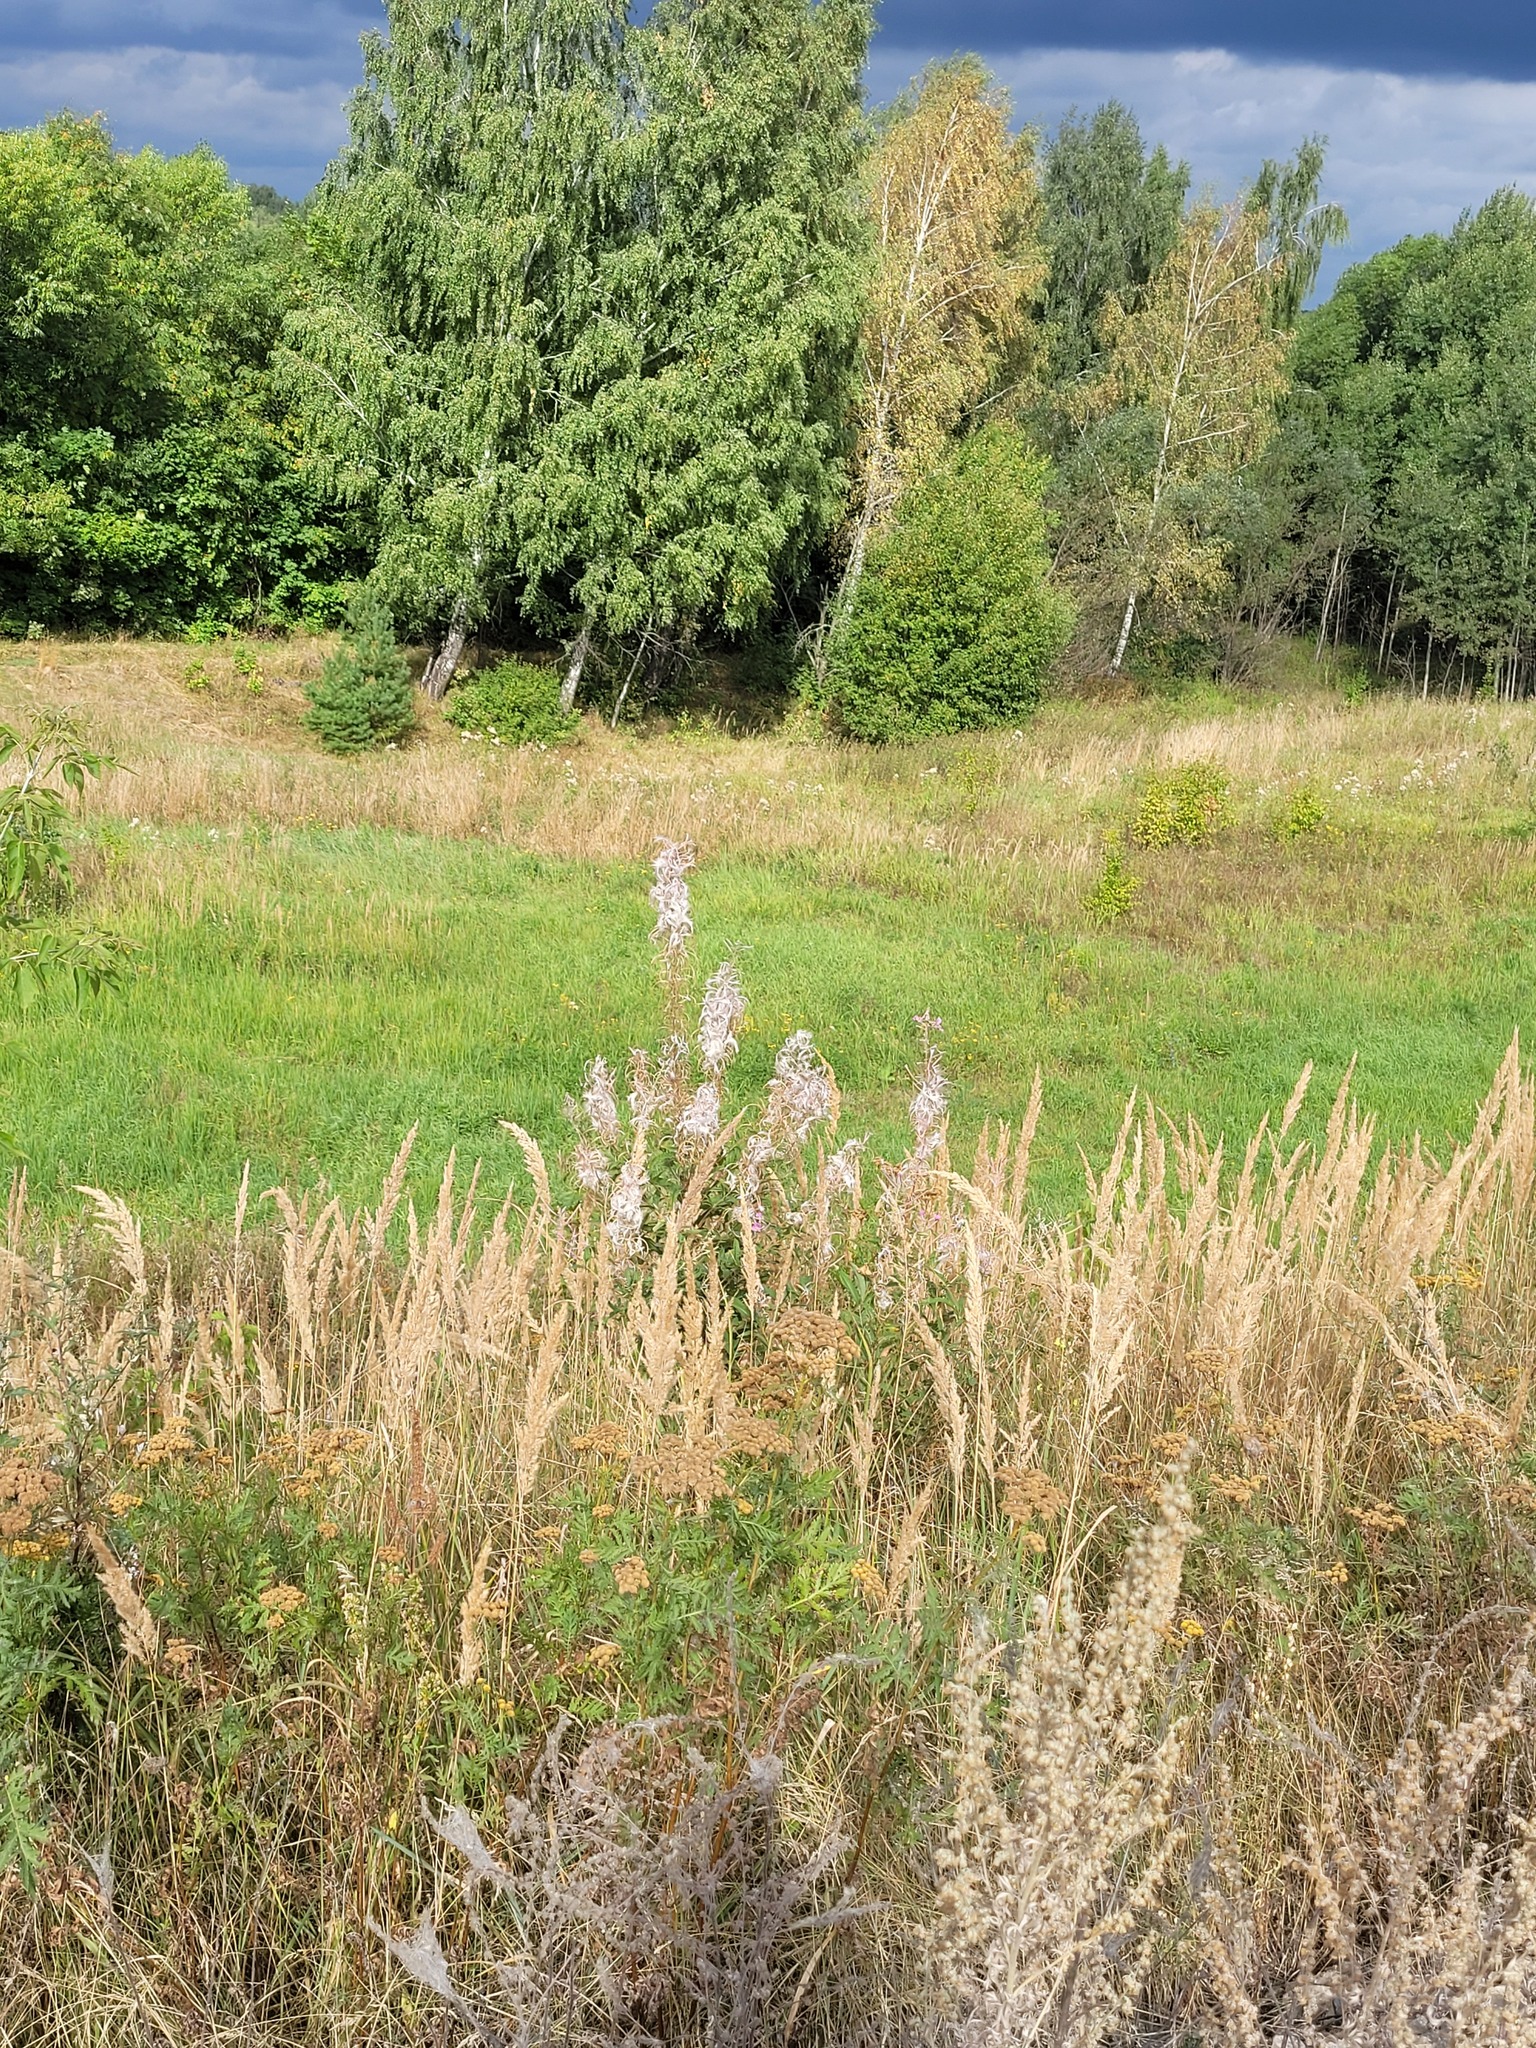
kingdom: Plantae
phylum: Tracheophyta
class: Magnoliopsida
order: Myrtales
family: Onagraceae
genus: Chamaenerion
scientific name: Chamaenerion angustifolium
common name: Fireweed
